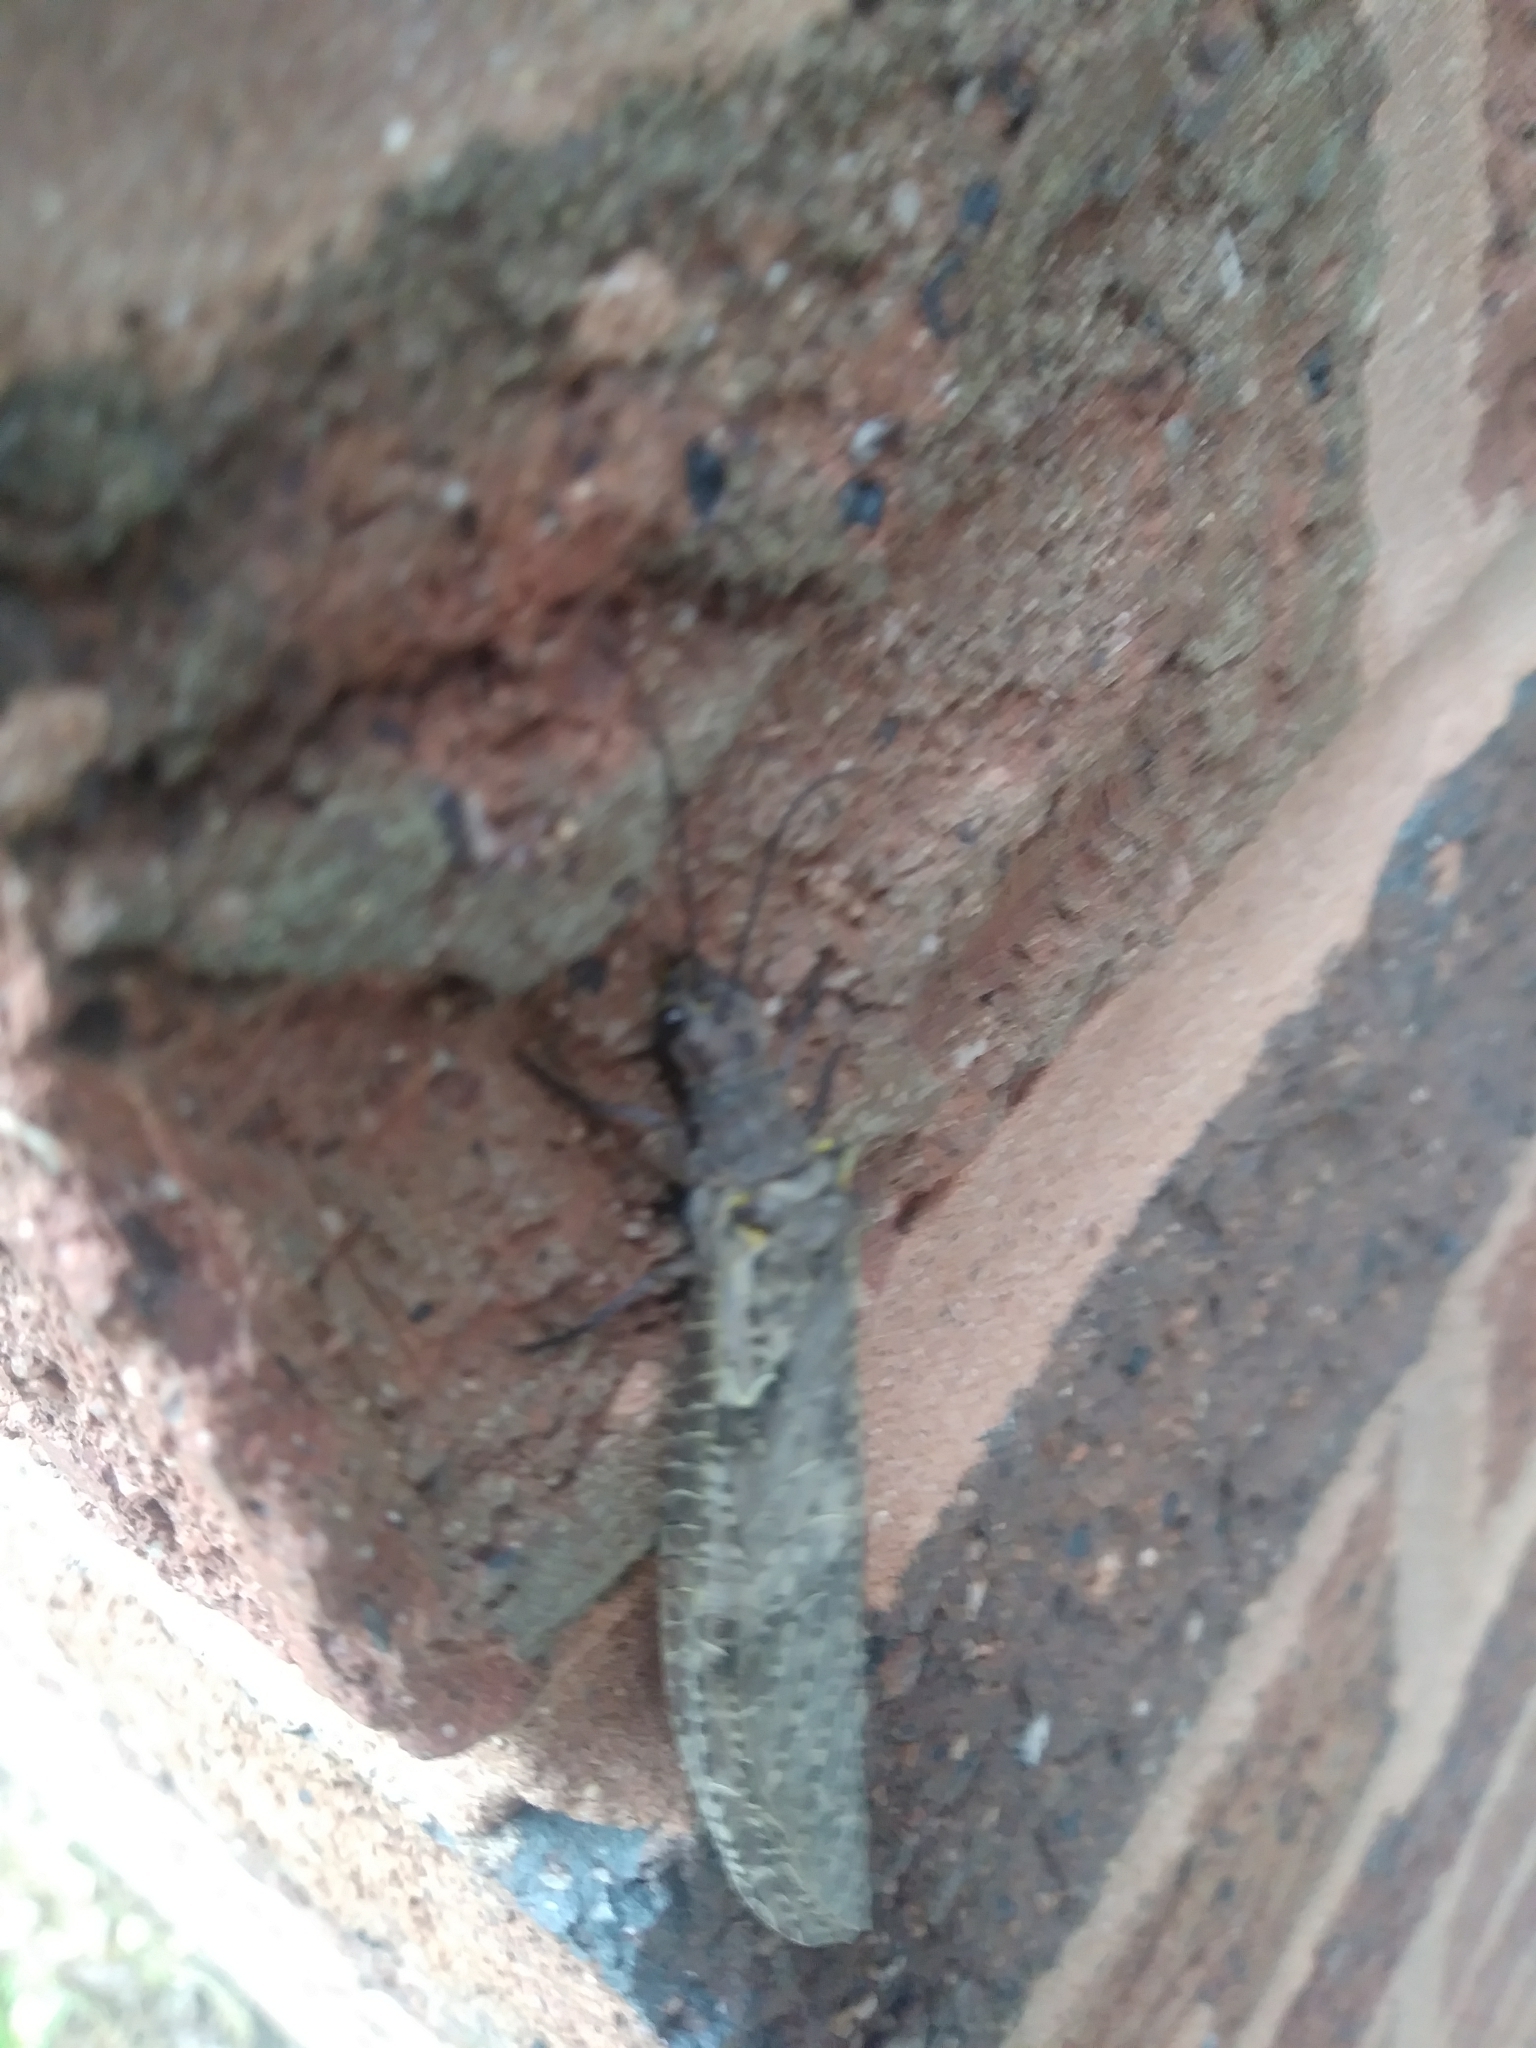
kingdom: Animalia
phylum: Arthropoda
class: Insecta
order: Megaloptera
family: Corydalidae
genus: Chauliodes
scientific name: Chauliodes rastricornis
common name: Spring fishfly
